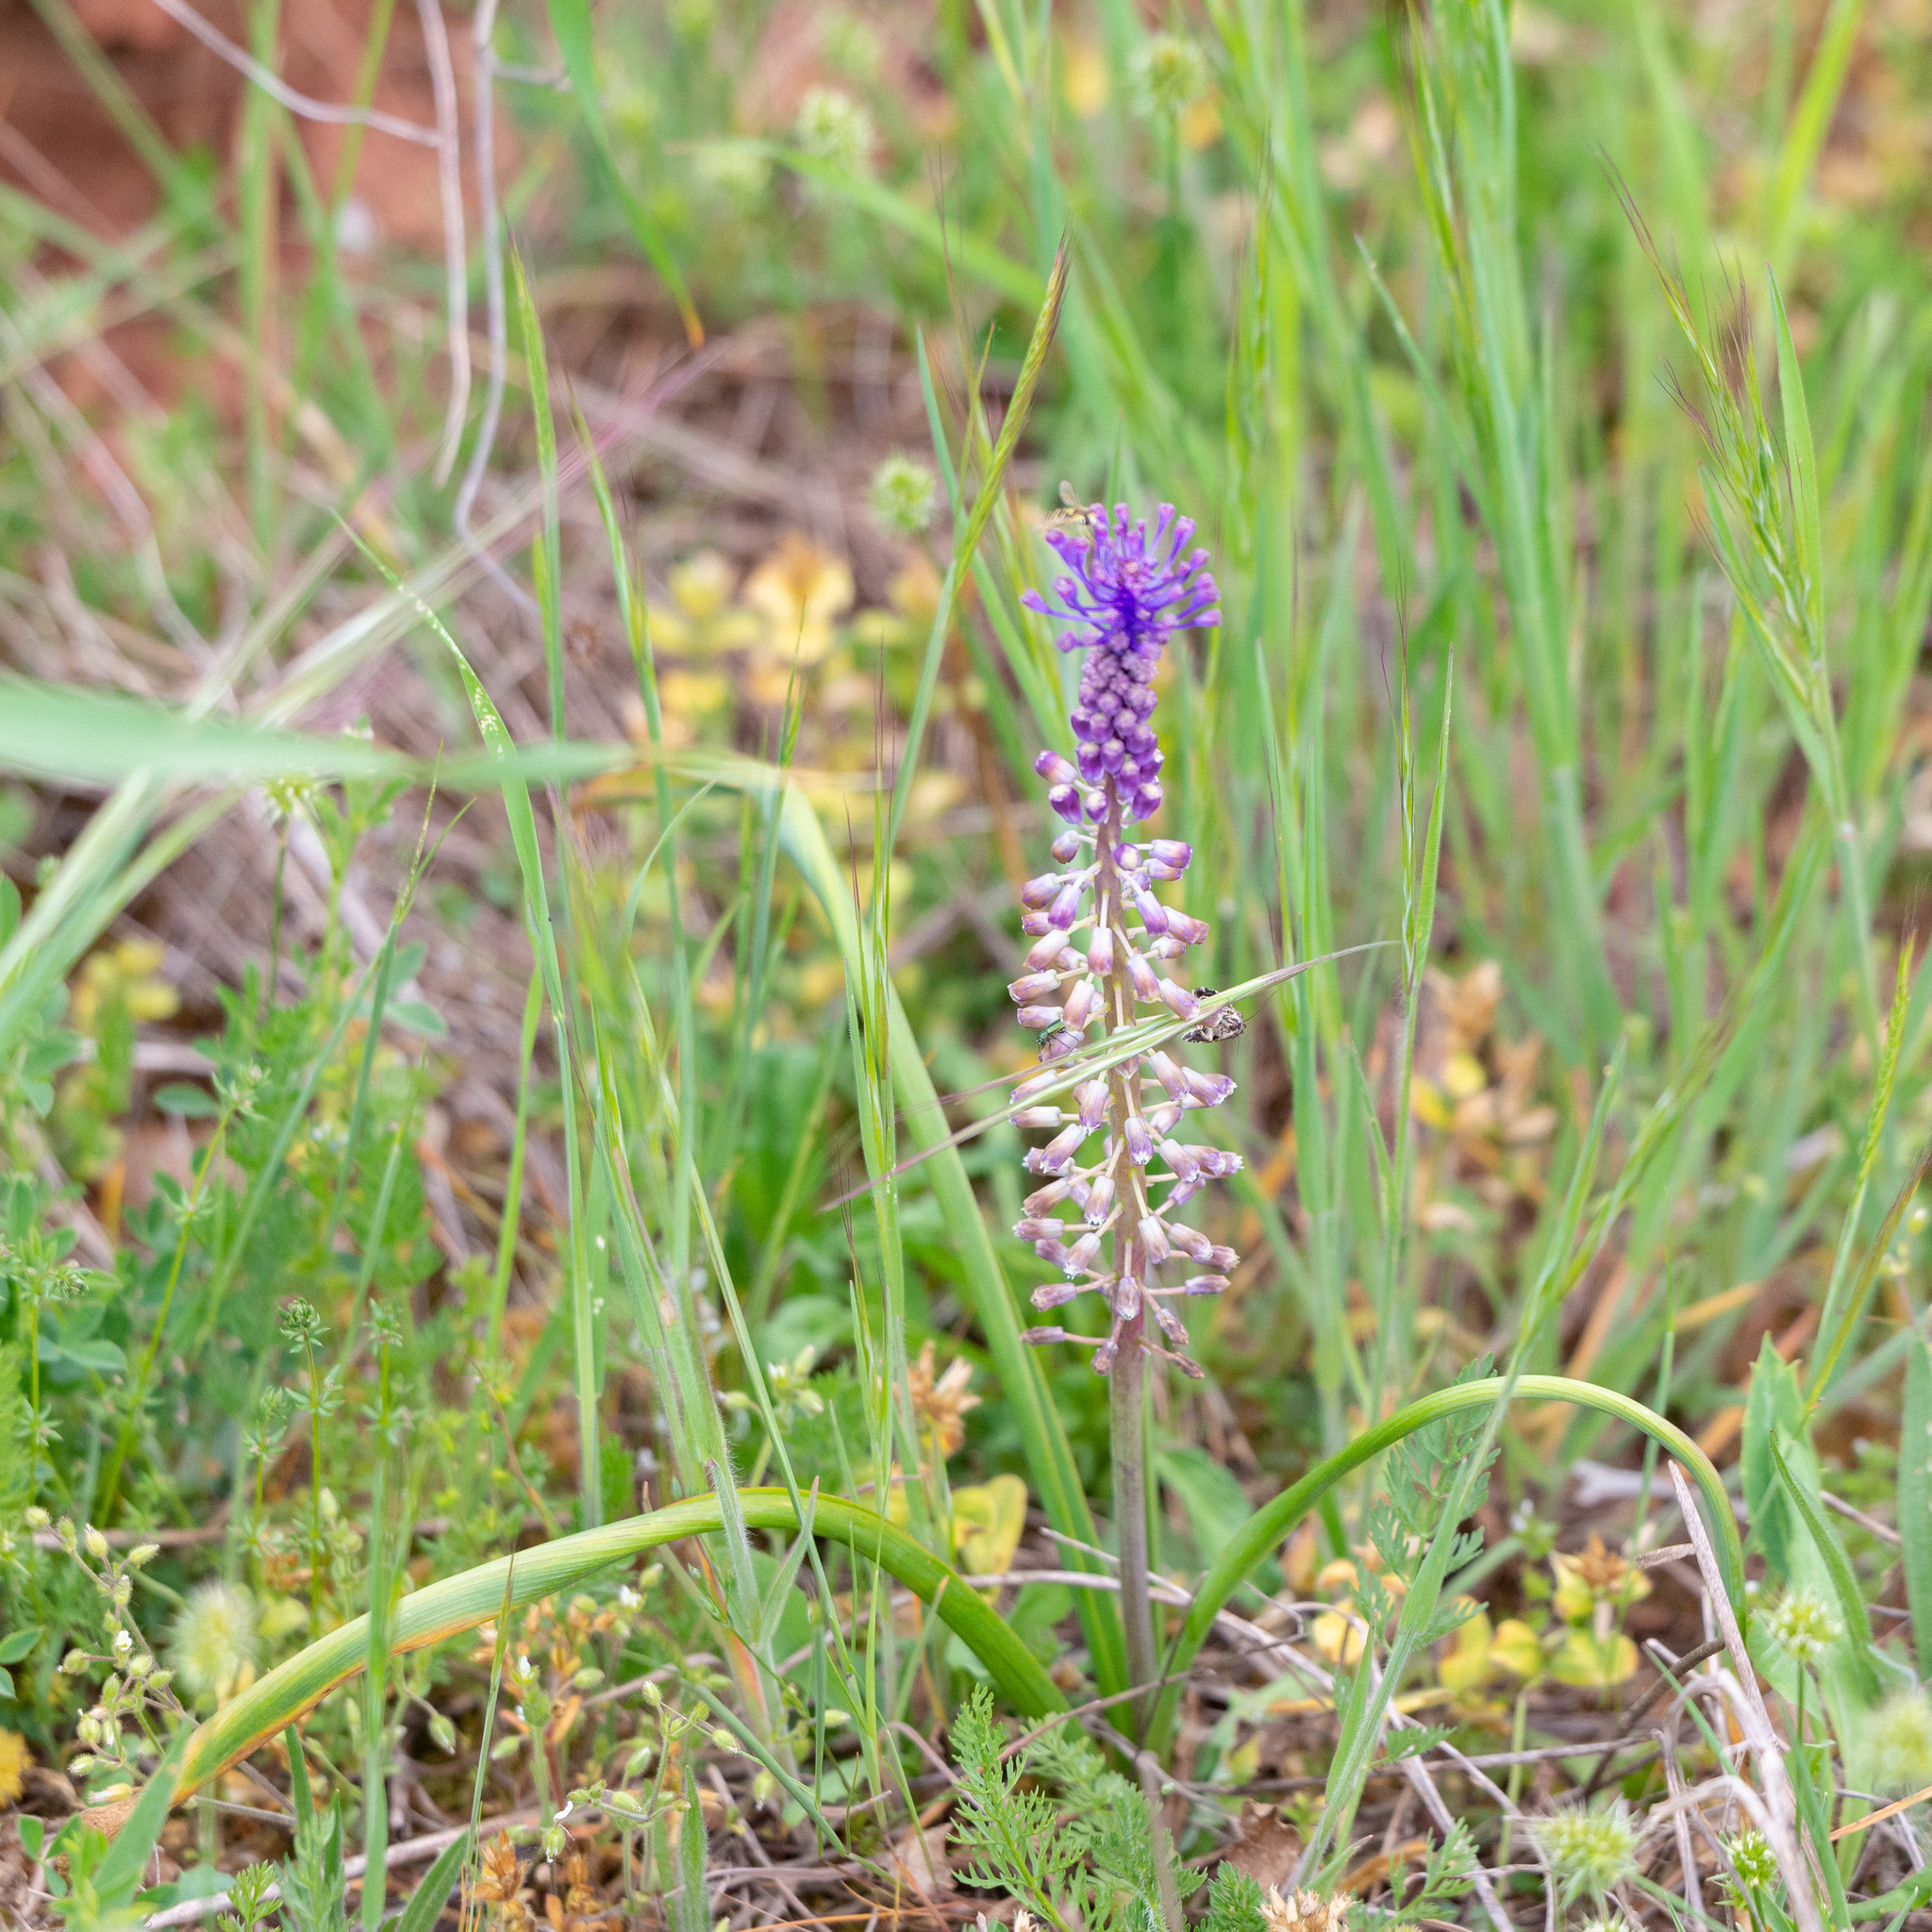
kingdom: Plantae
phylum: Tracheophyta
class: Liliopsida
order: Asparagales
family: Asparagaceae
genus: Muscari
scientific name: Muscari comosum
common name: Tassel hyacinth
